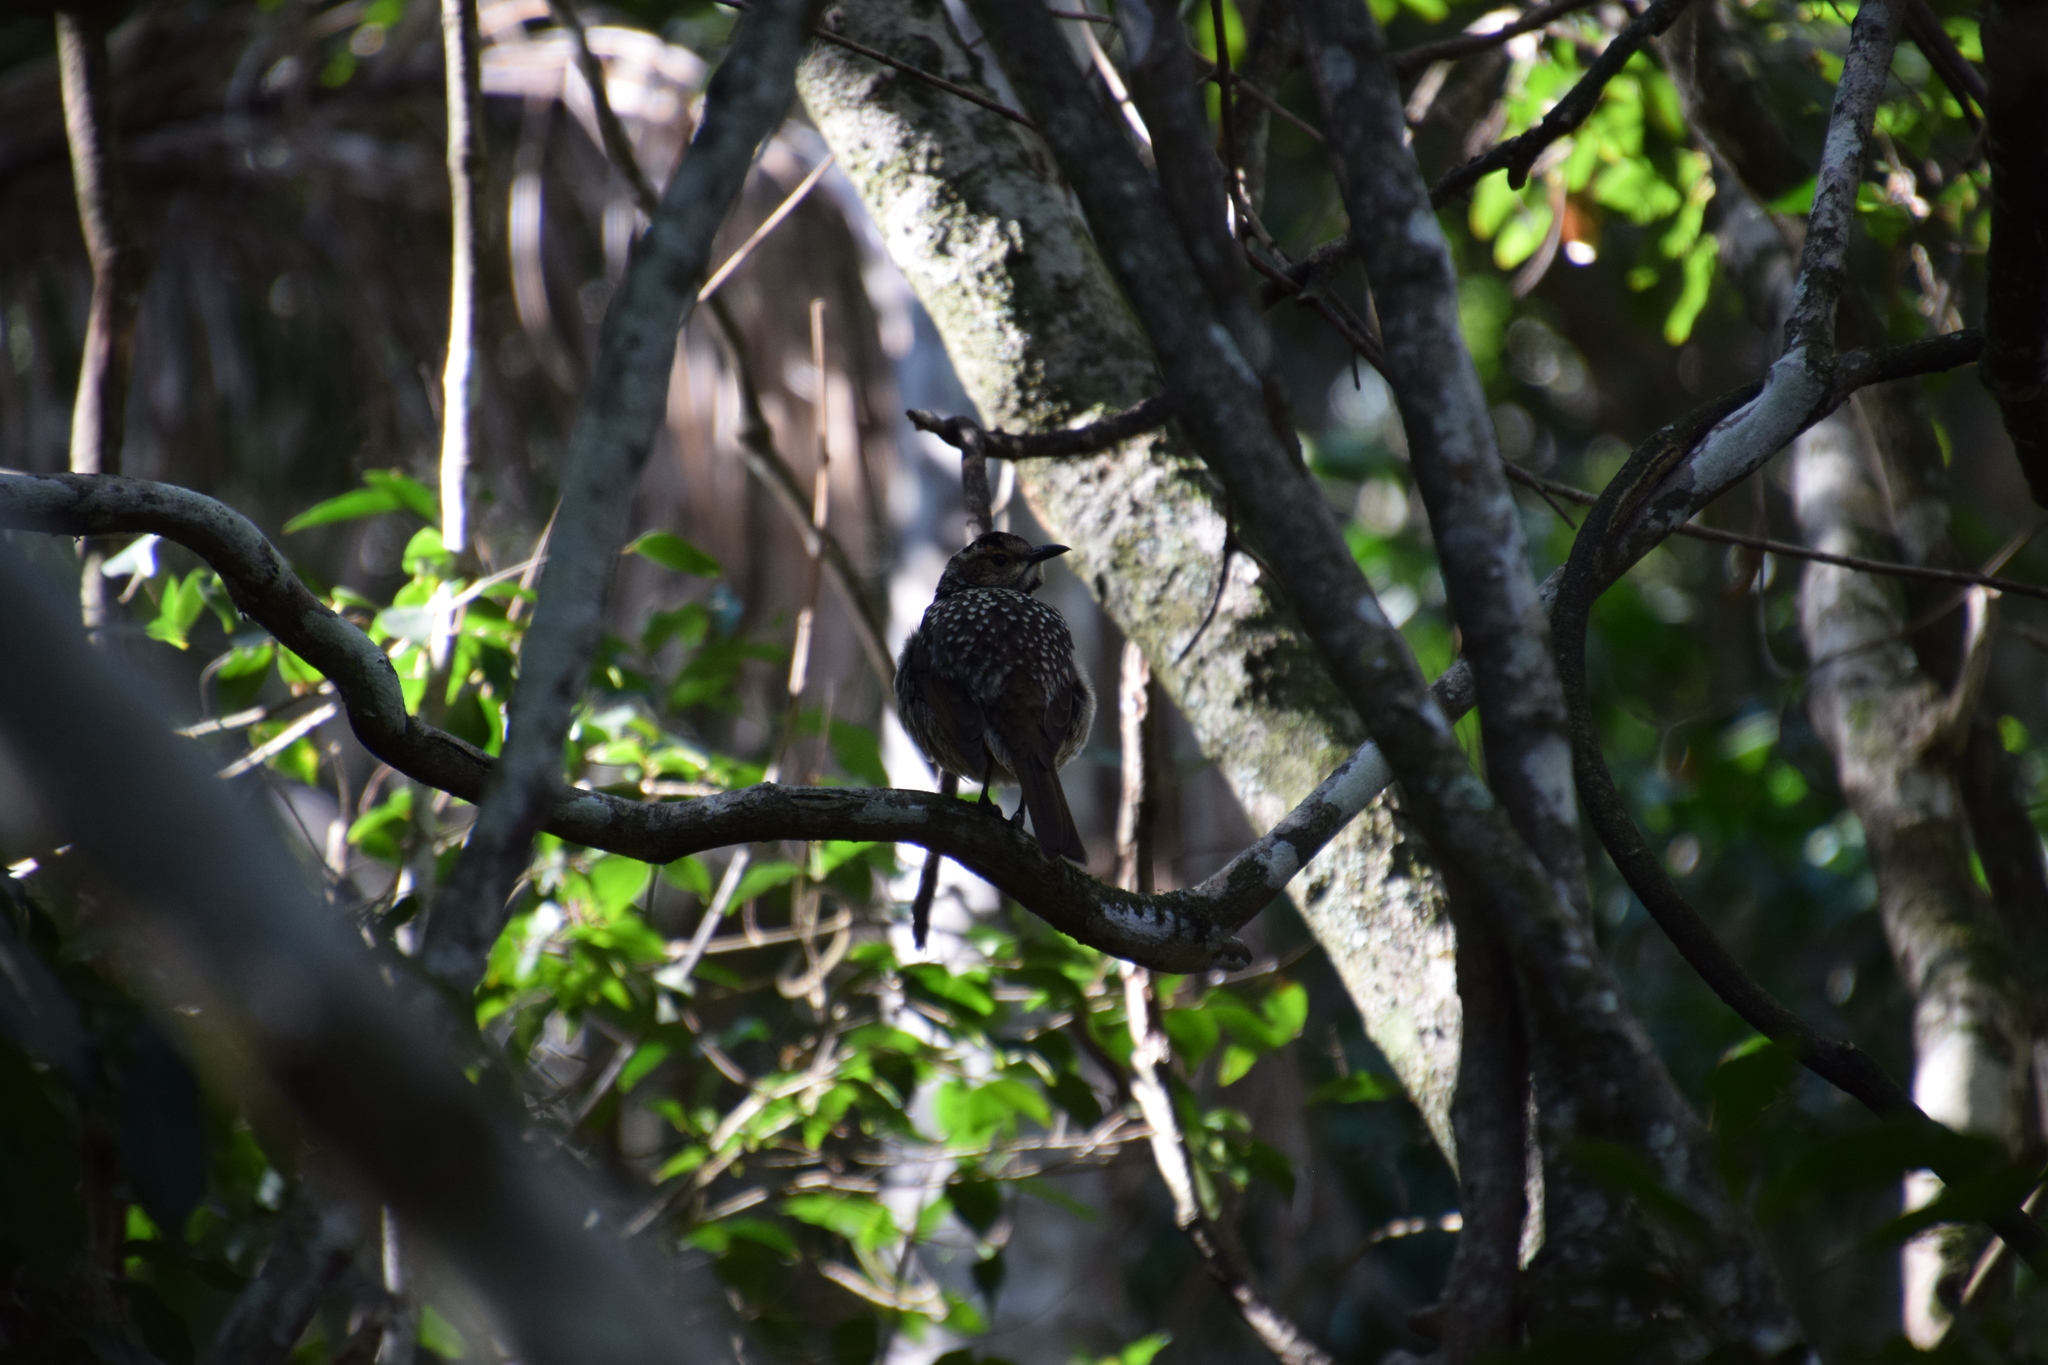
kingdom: Animalia
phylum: Chordata
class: Aves
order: Passeriformes
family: Ptilonorhynchidae
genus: Sericulus
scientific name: Sericulus chrysocephalus
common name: Regent bowerbird
